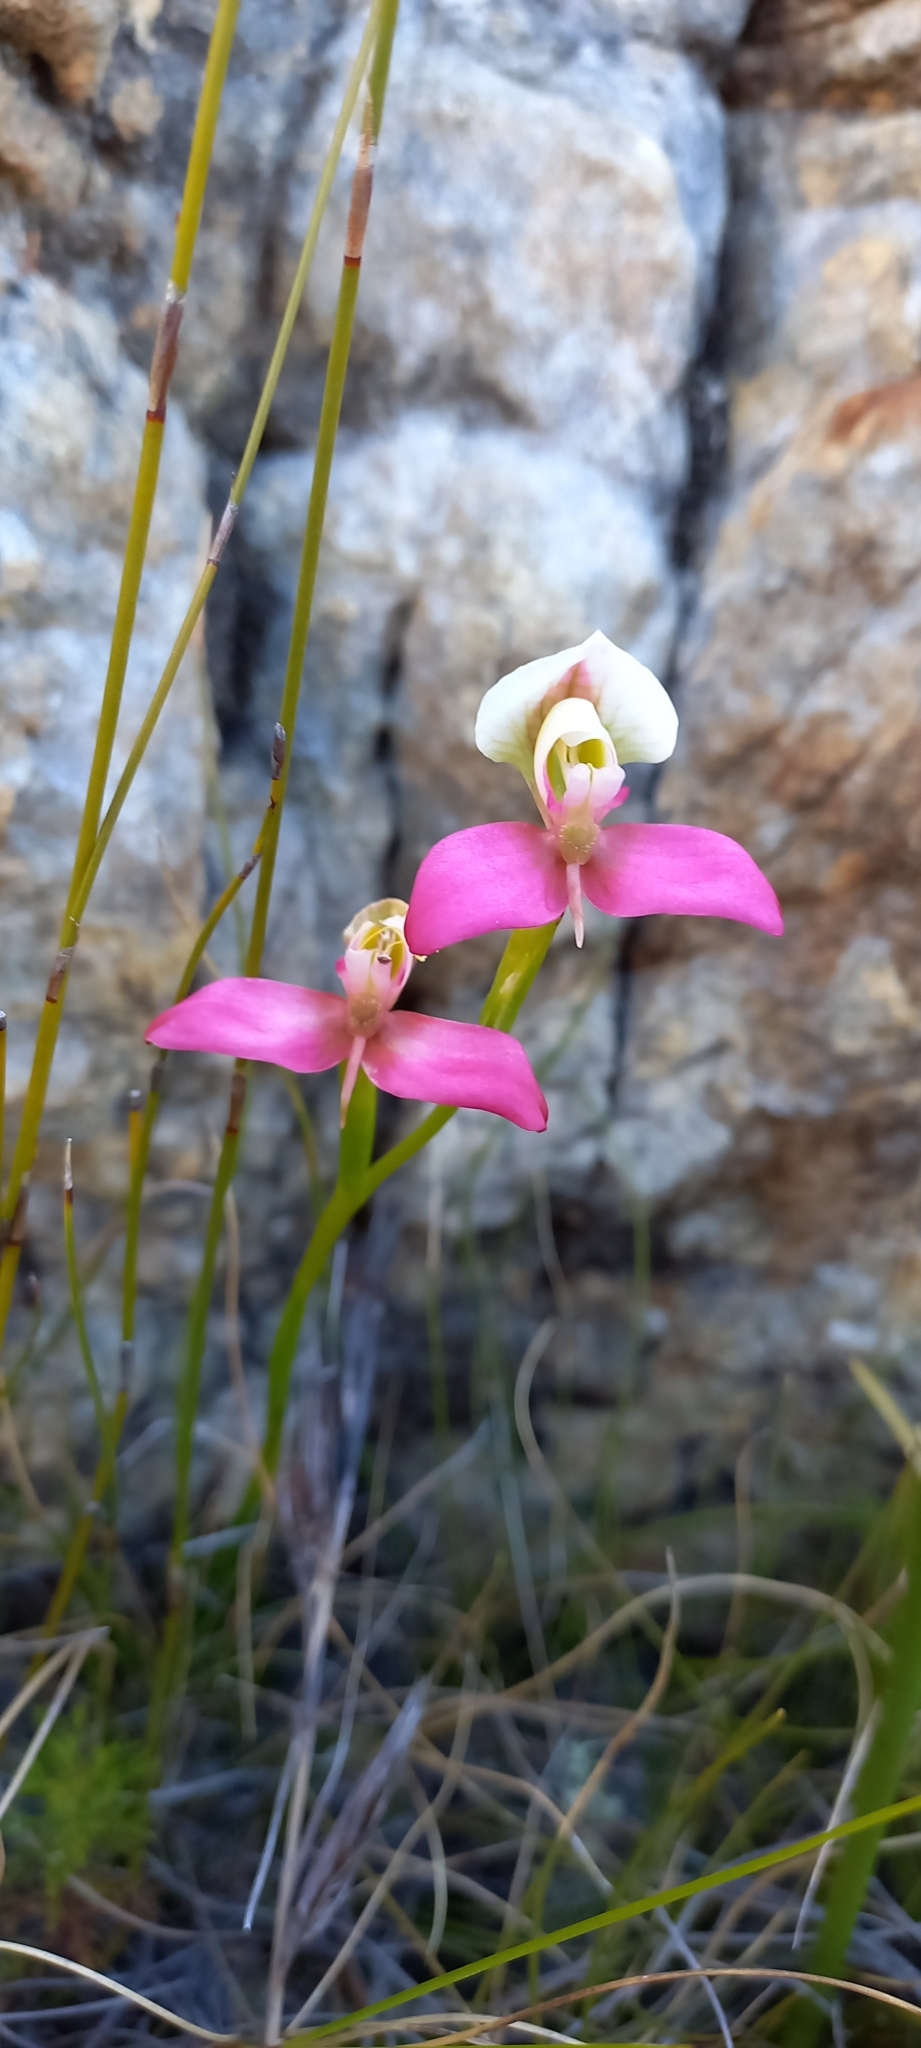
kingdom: Plantae
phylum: Tracheophyta
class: Liliopsida
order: Asparagales
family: Orchidaceae
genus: Disa
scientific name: Disa filicornis
